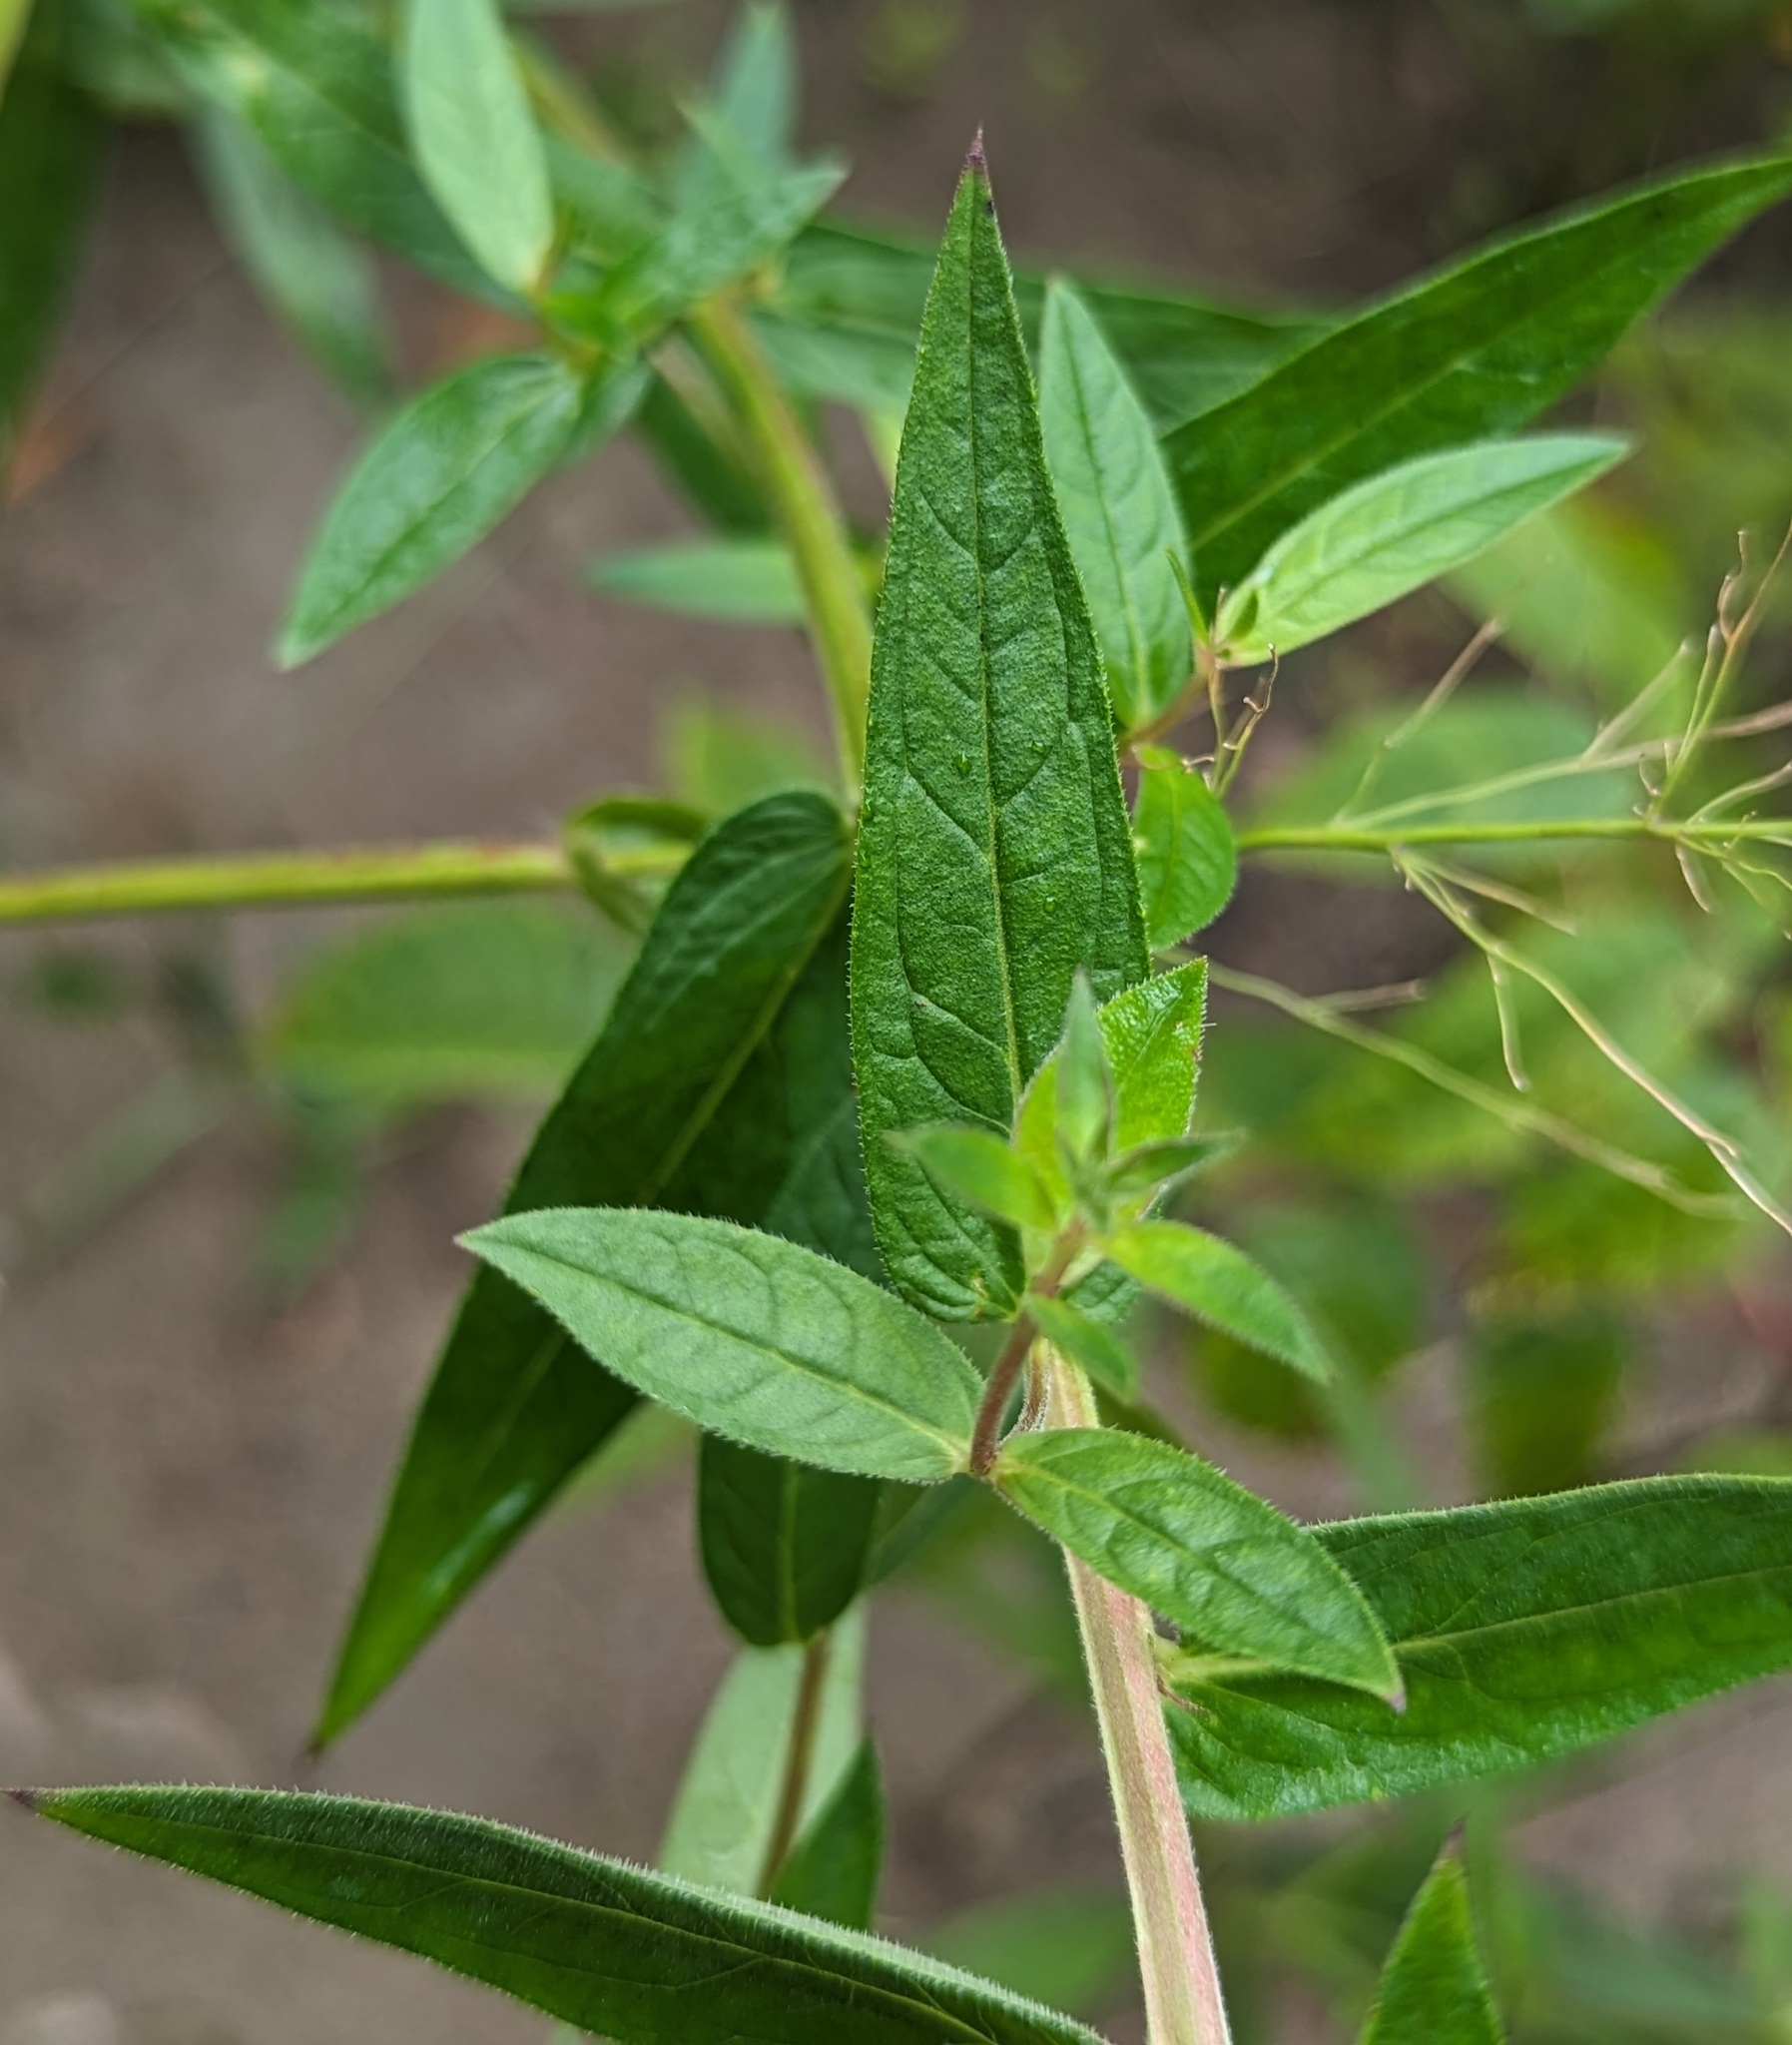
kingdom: Plantae
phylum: Tracheophyta
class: Magnoliopsida
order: Myrtales
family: Lythraceae
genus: Lythrum
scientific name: Lythrum salicaria
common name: Purple loosestrife
